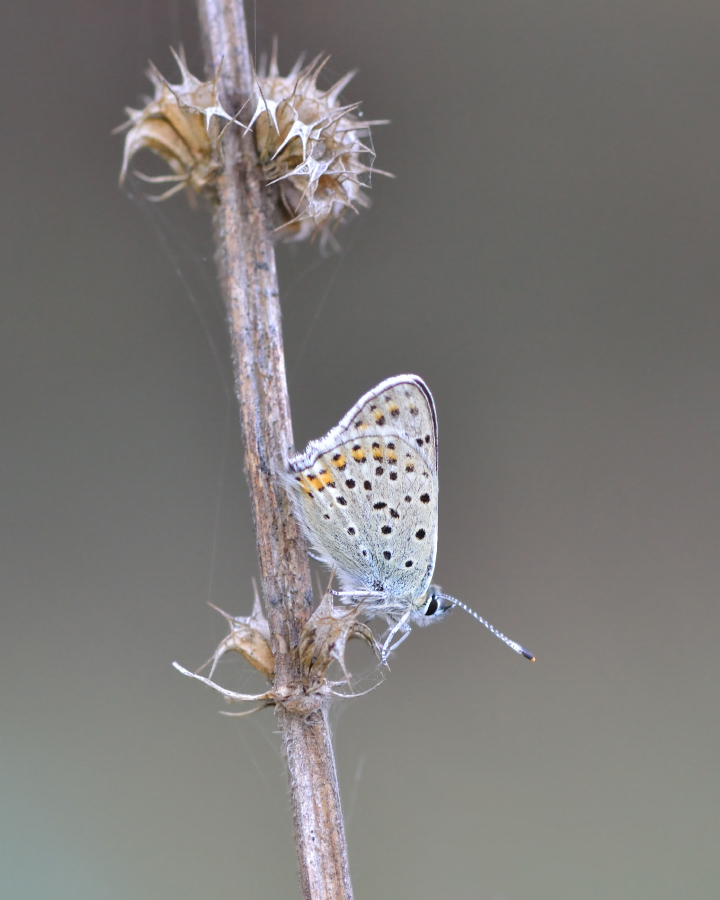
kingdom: Animalia
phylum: Arthropoda
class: Insecta
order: Lepidoptera
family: Lycaenidae
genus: Loweia
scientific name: Loweia tityrus
